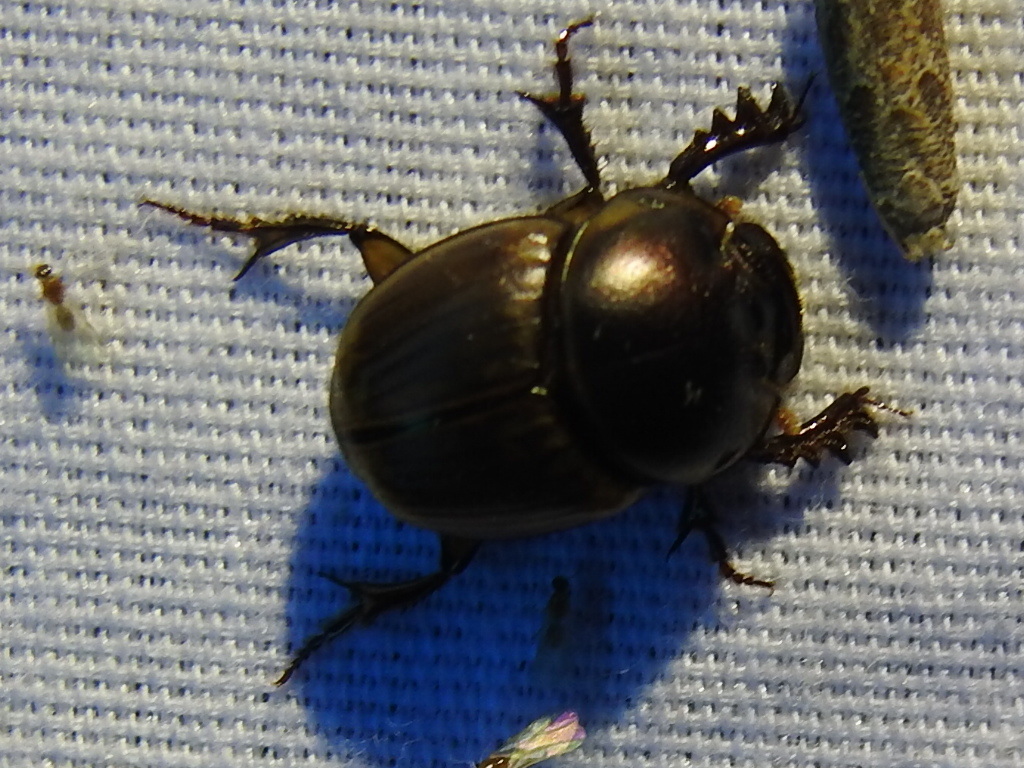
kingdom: Animalia
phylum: Arthropoda
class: Insecta
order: Coleoptera
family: Scarabaeidae
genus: Digitonthophagus
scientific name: Digitonthophagus gazella
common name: Brown dung beetle
